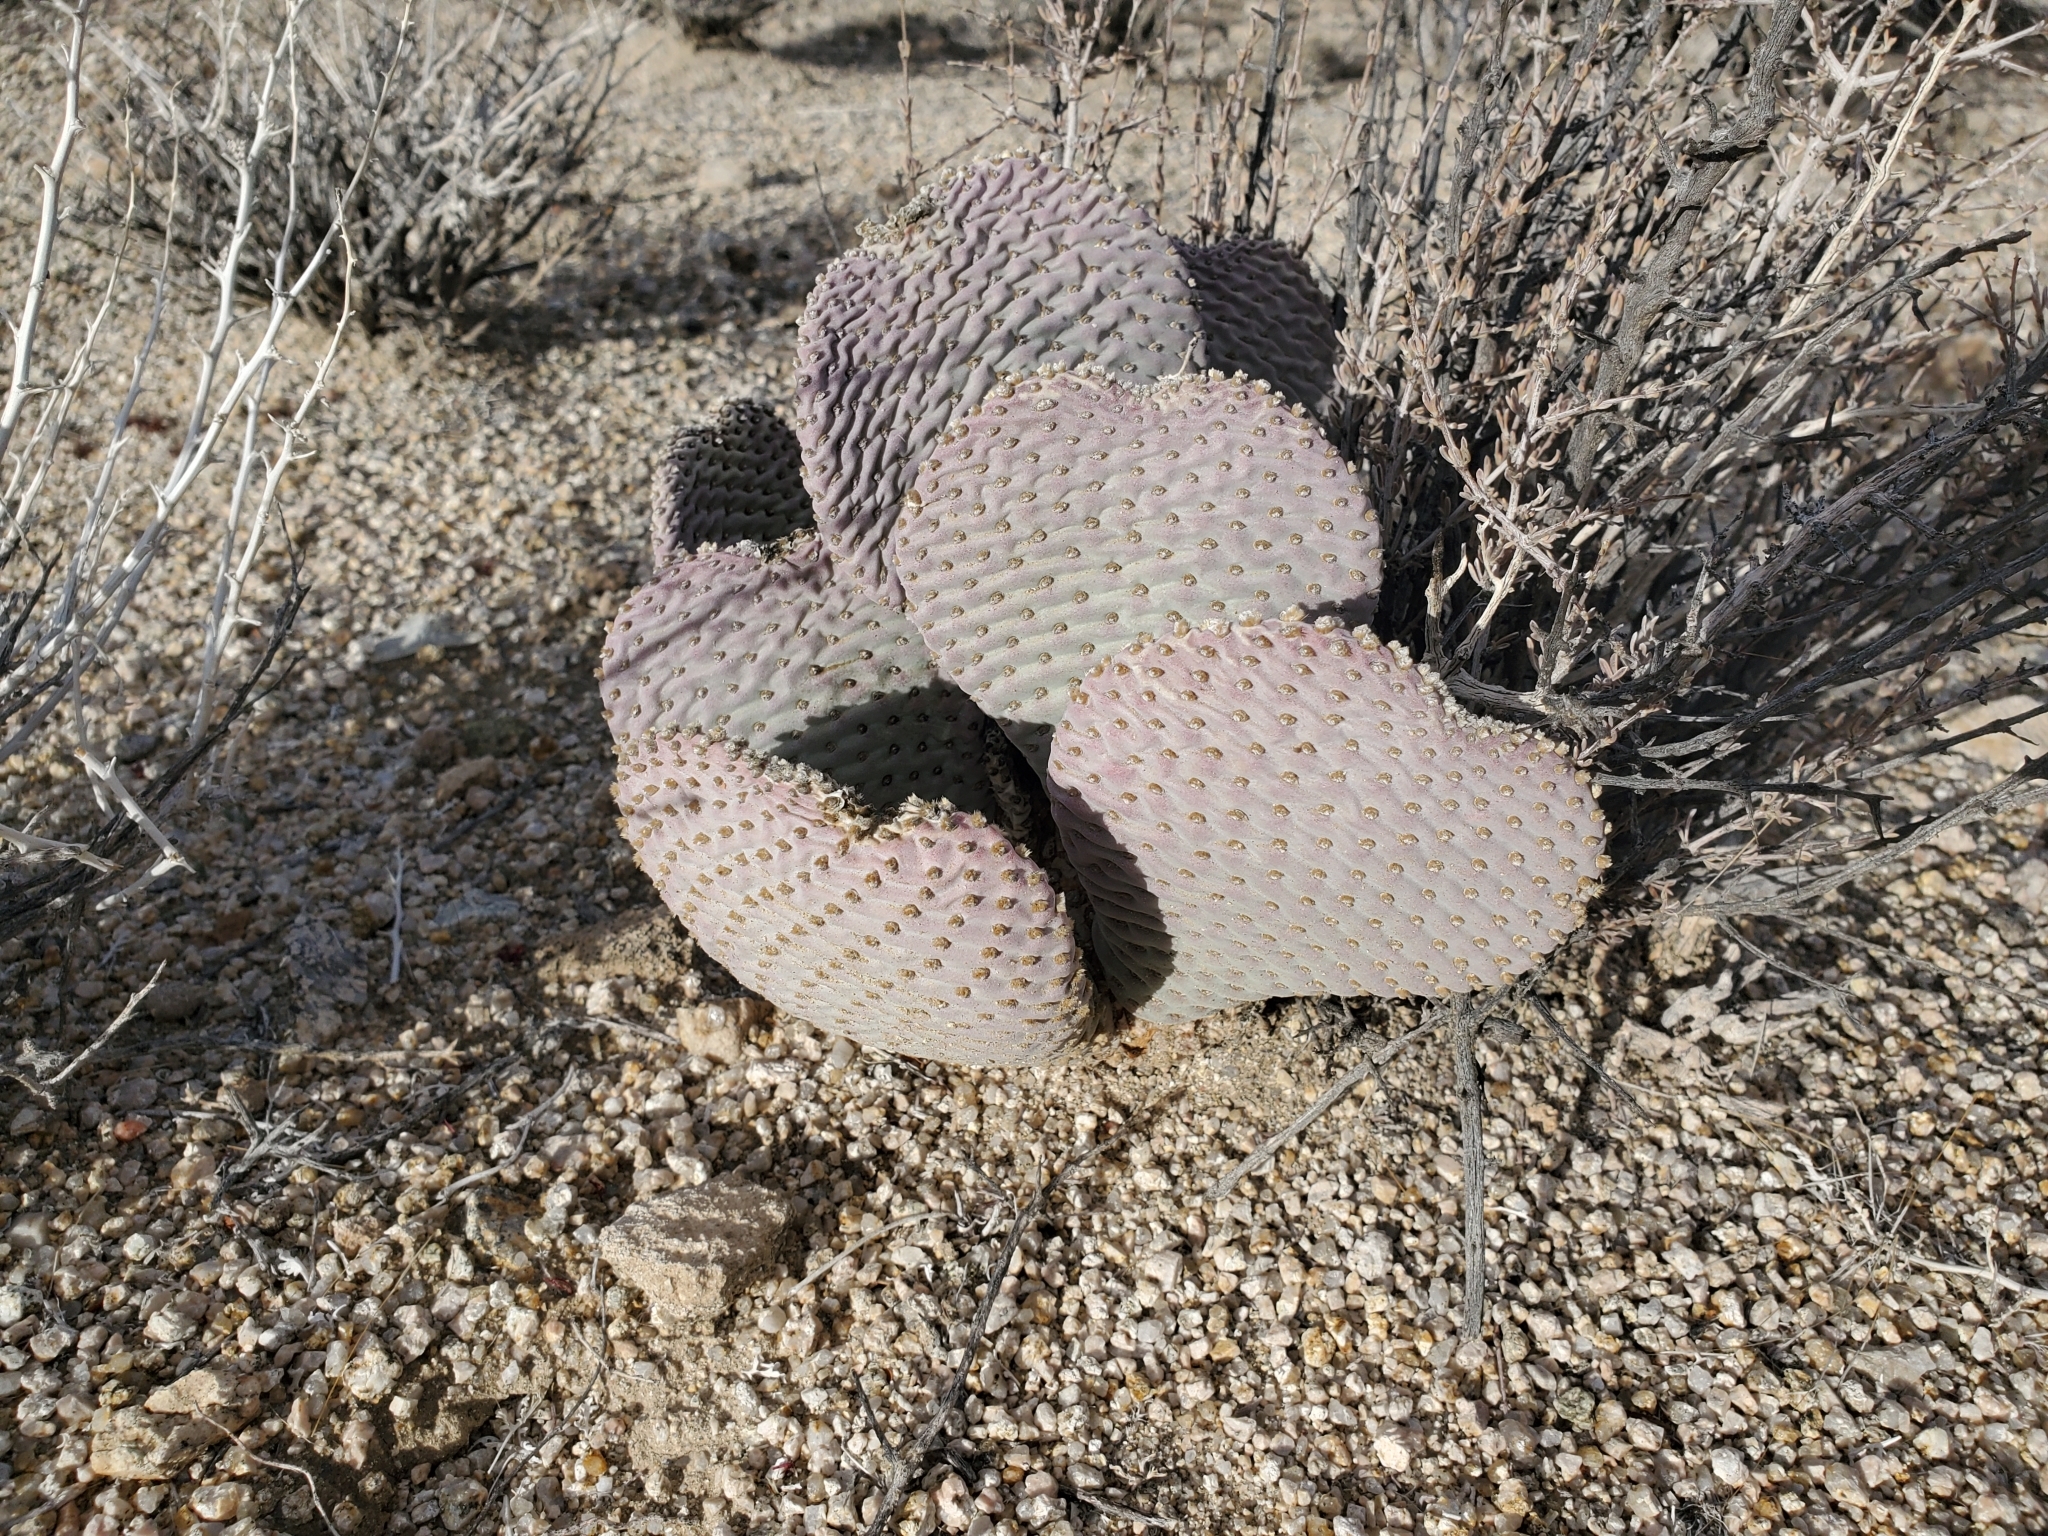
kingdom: Plantae
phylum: Tracheophyta
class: Magnoliopsida
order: Caryophyllales
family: Cactaceae
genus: Opuntia
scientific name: Opuntia basilaris
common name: Beavertail prickly-pear
